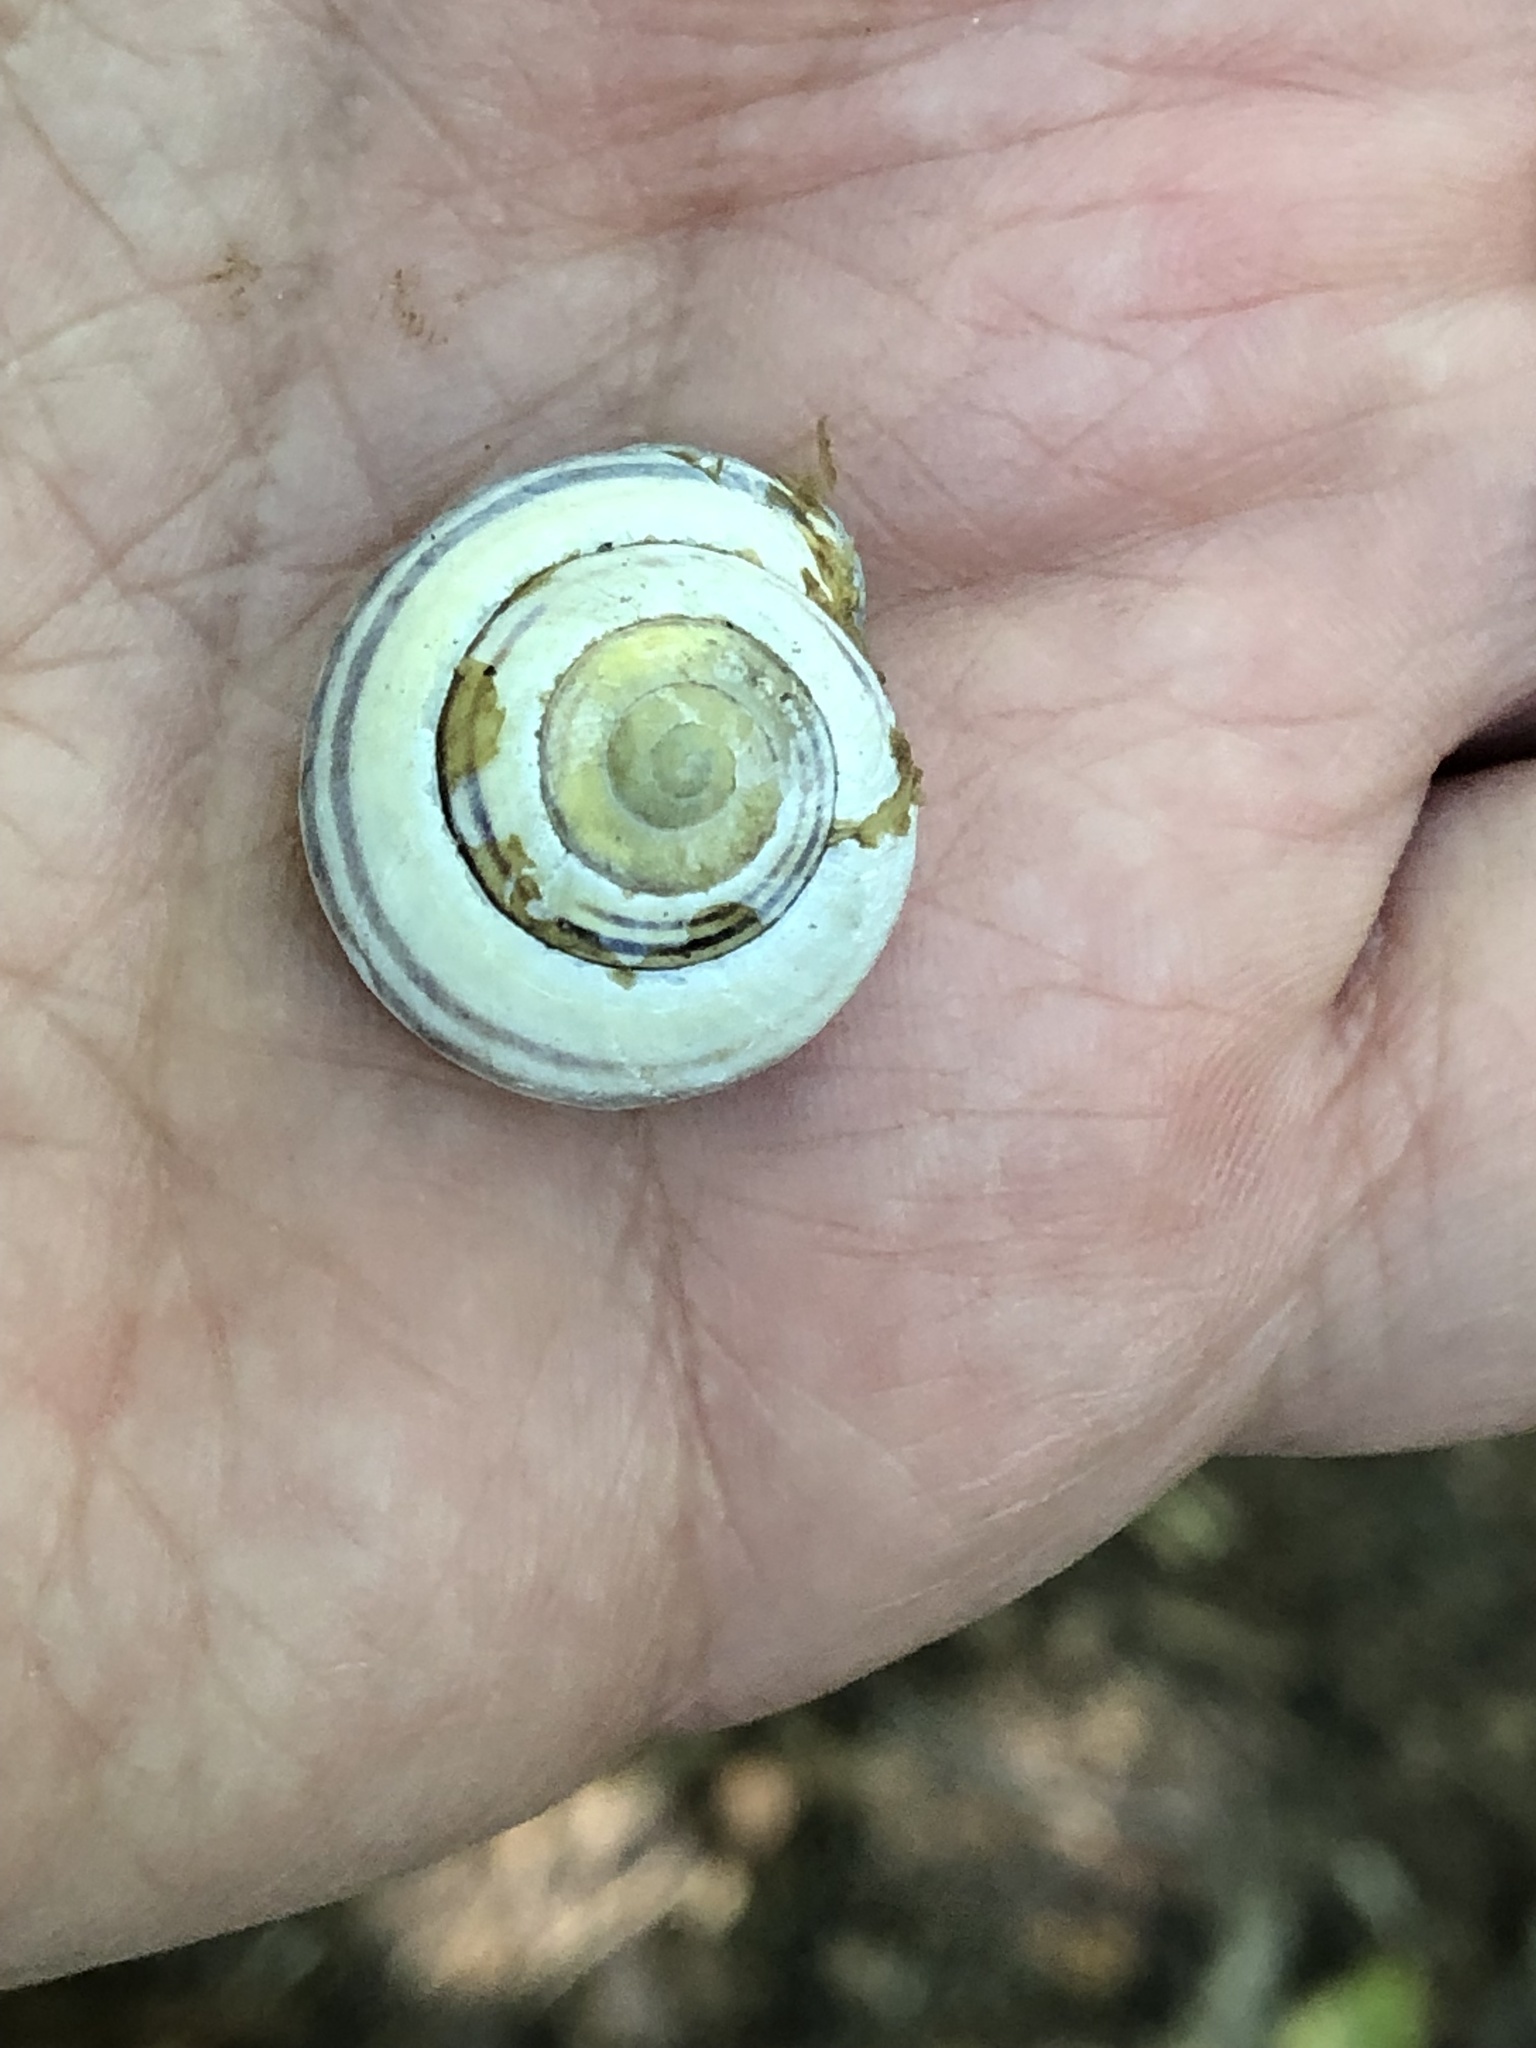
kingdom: Animalia
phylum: Mollusca
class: Gastropoda
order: Stylommatophora
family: Helicidae
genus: Cepaea
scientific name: Cepaea nemoralis
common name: Grovesnail
